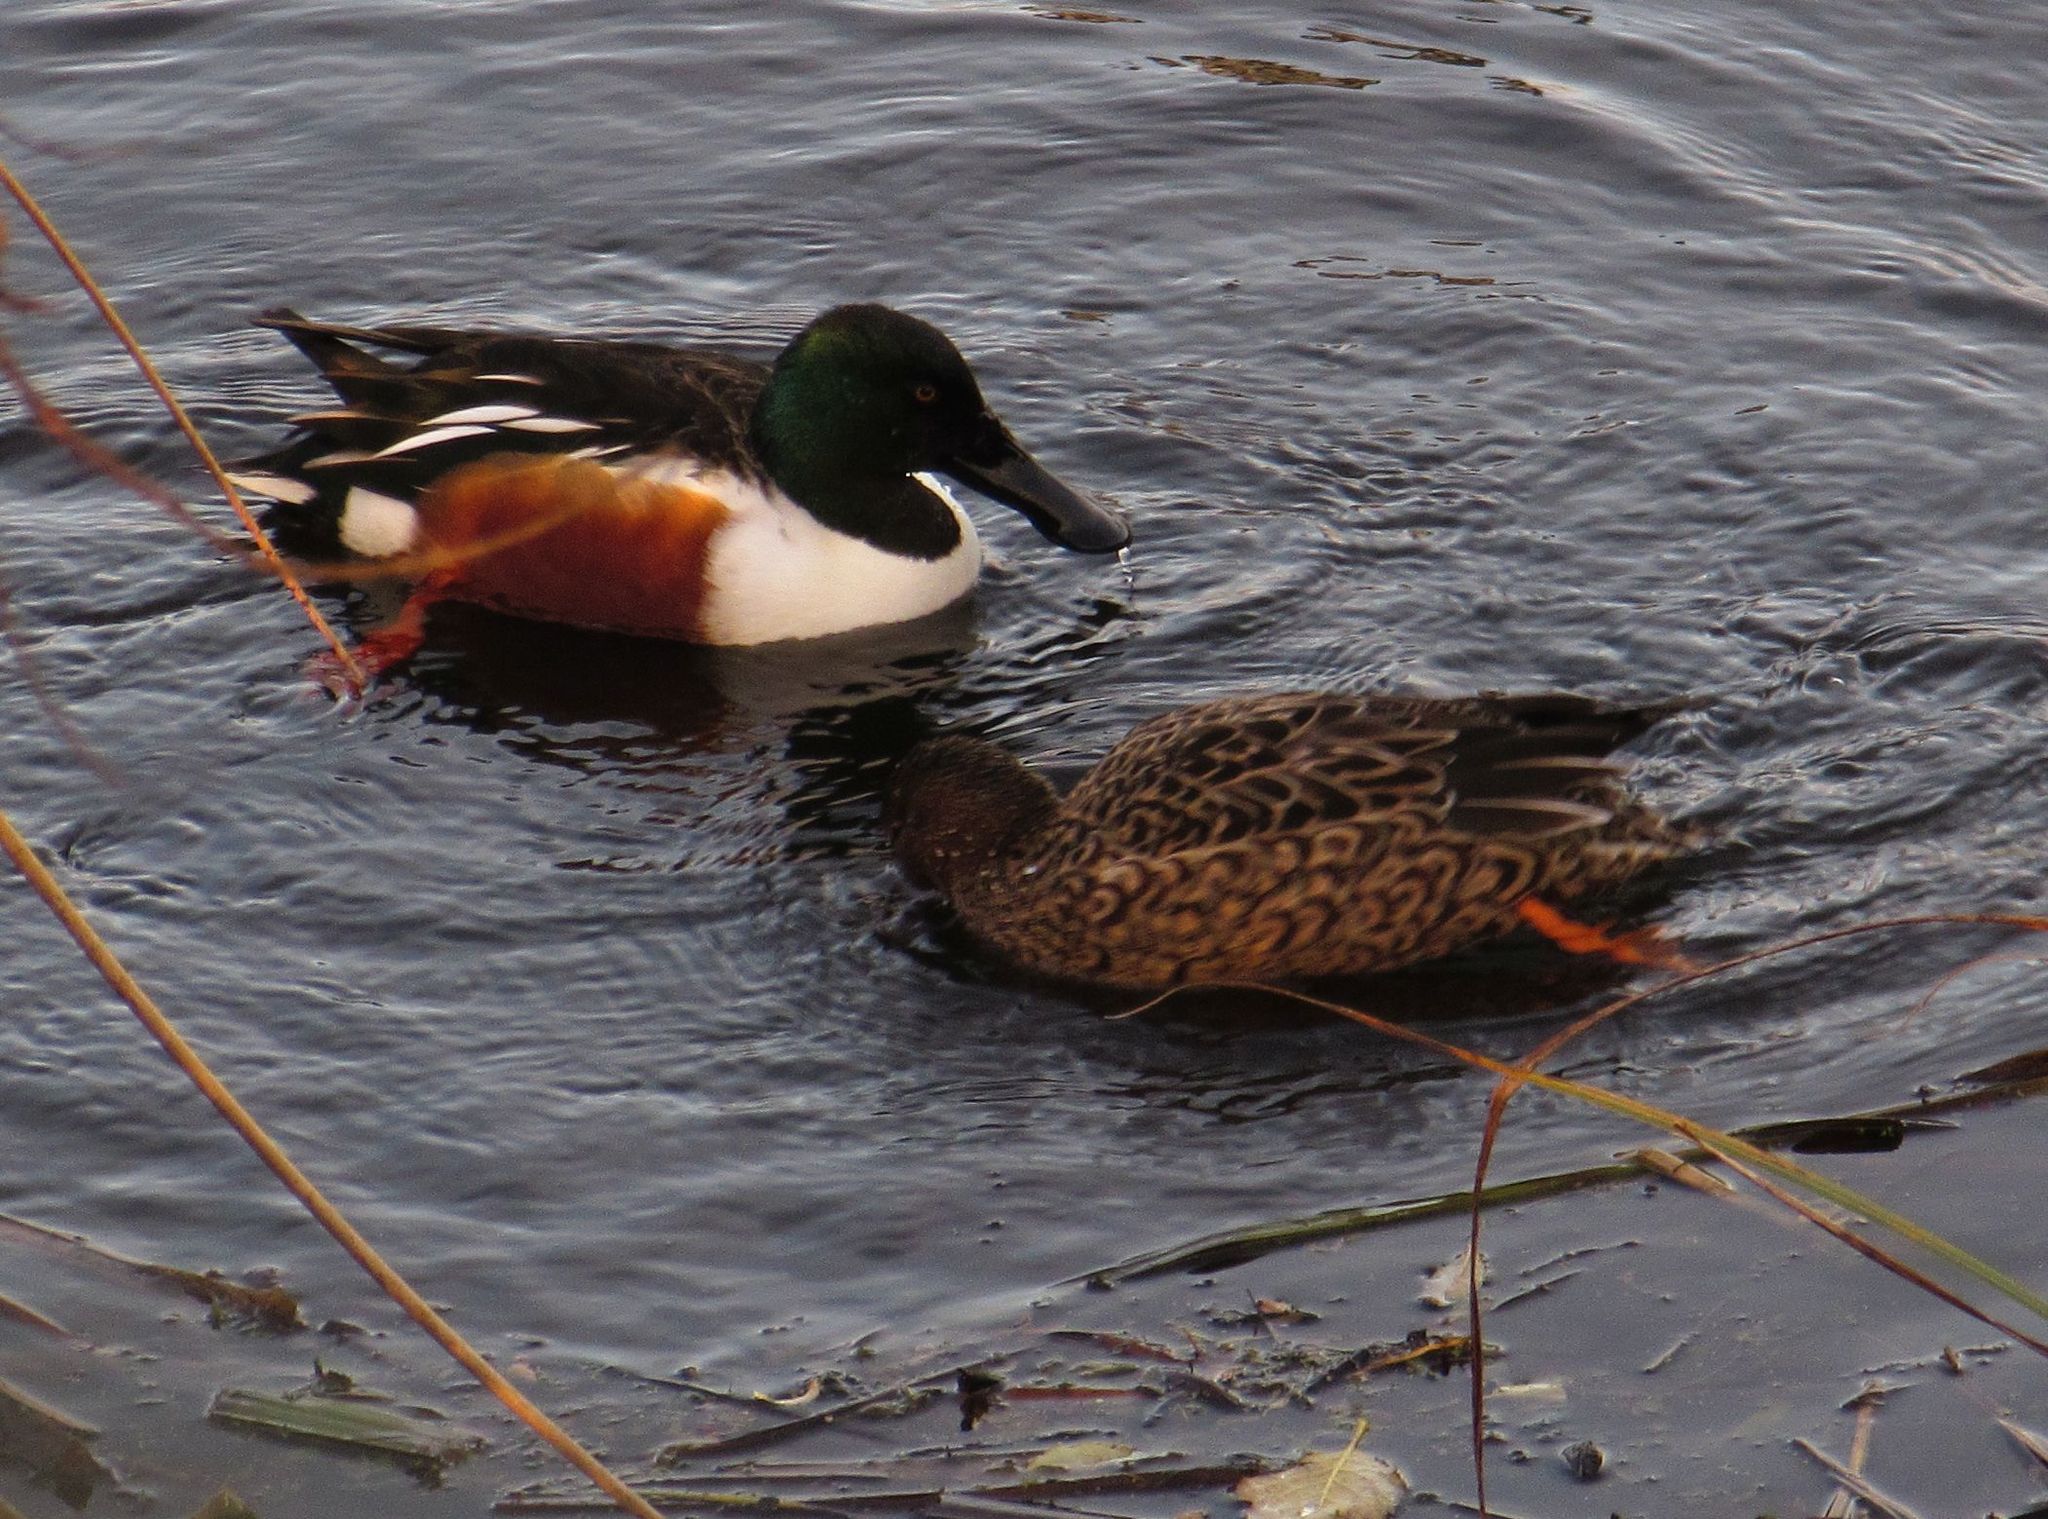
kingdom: Animalia
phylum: Chordata
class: Aves
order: Anseriformes
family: Anatidae
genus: Spatula
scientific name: Spatula clypeata
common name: Northern shoveler
